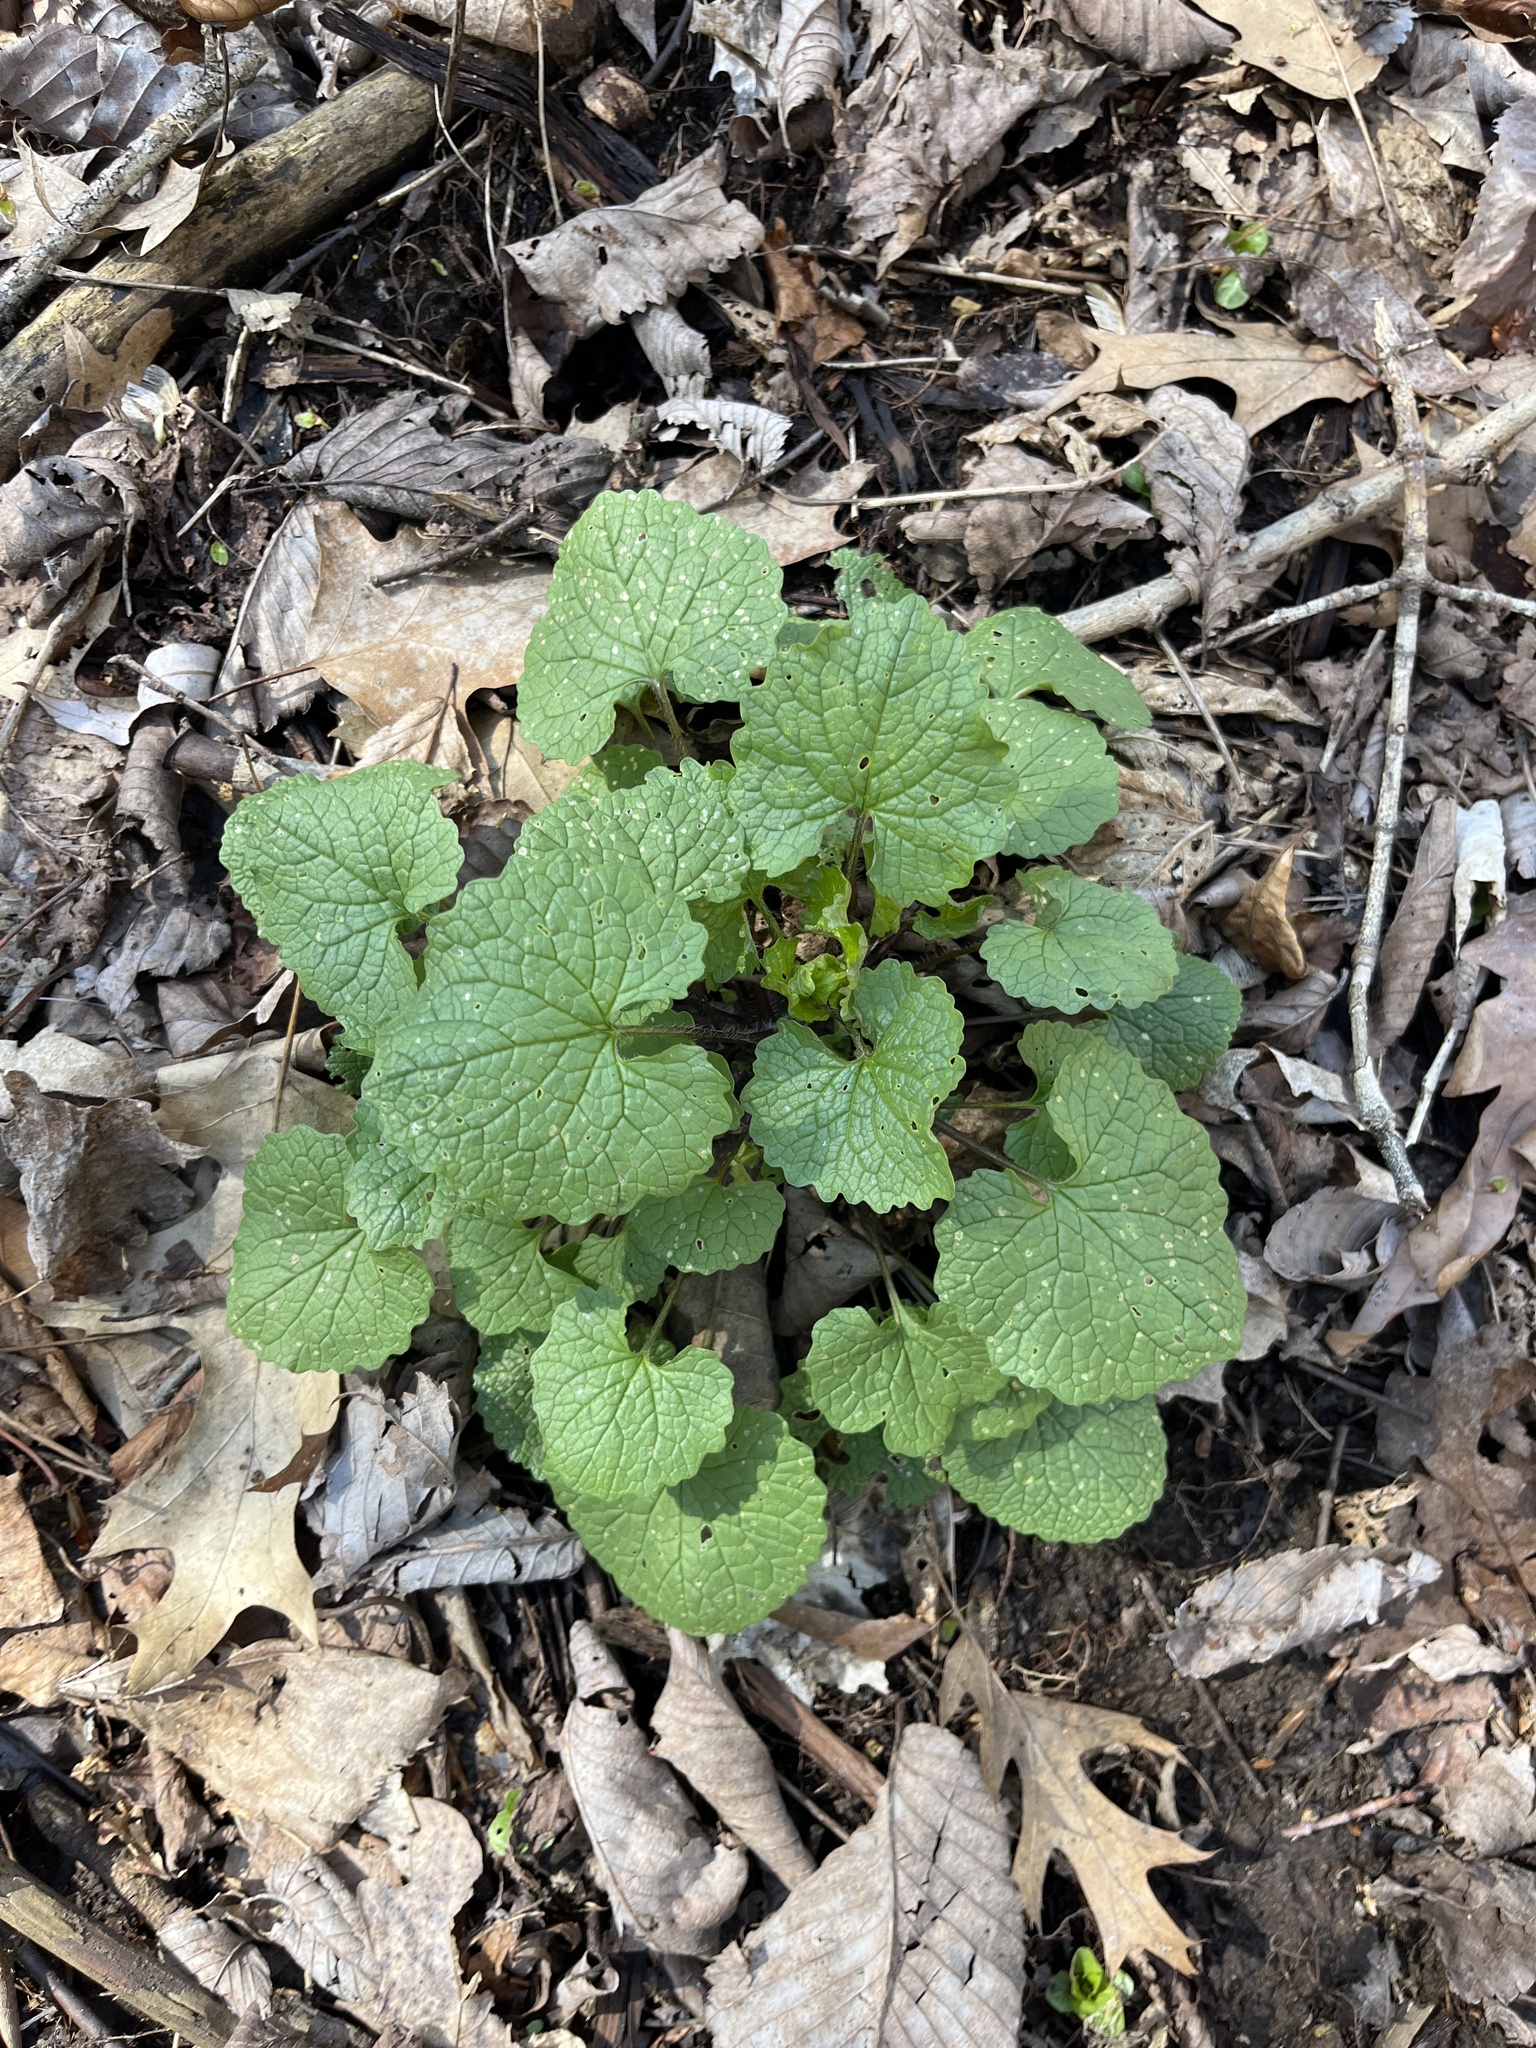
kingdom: Plantae
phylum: Tracheophyta
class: Magnoliopsida
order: Brassicales
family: Brassicaceae
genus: Alliaria
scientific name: Alliaria petiolata
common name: Garlic mustard
